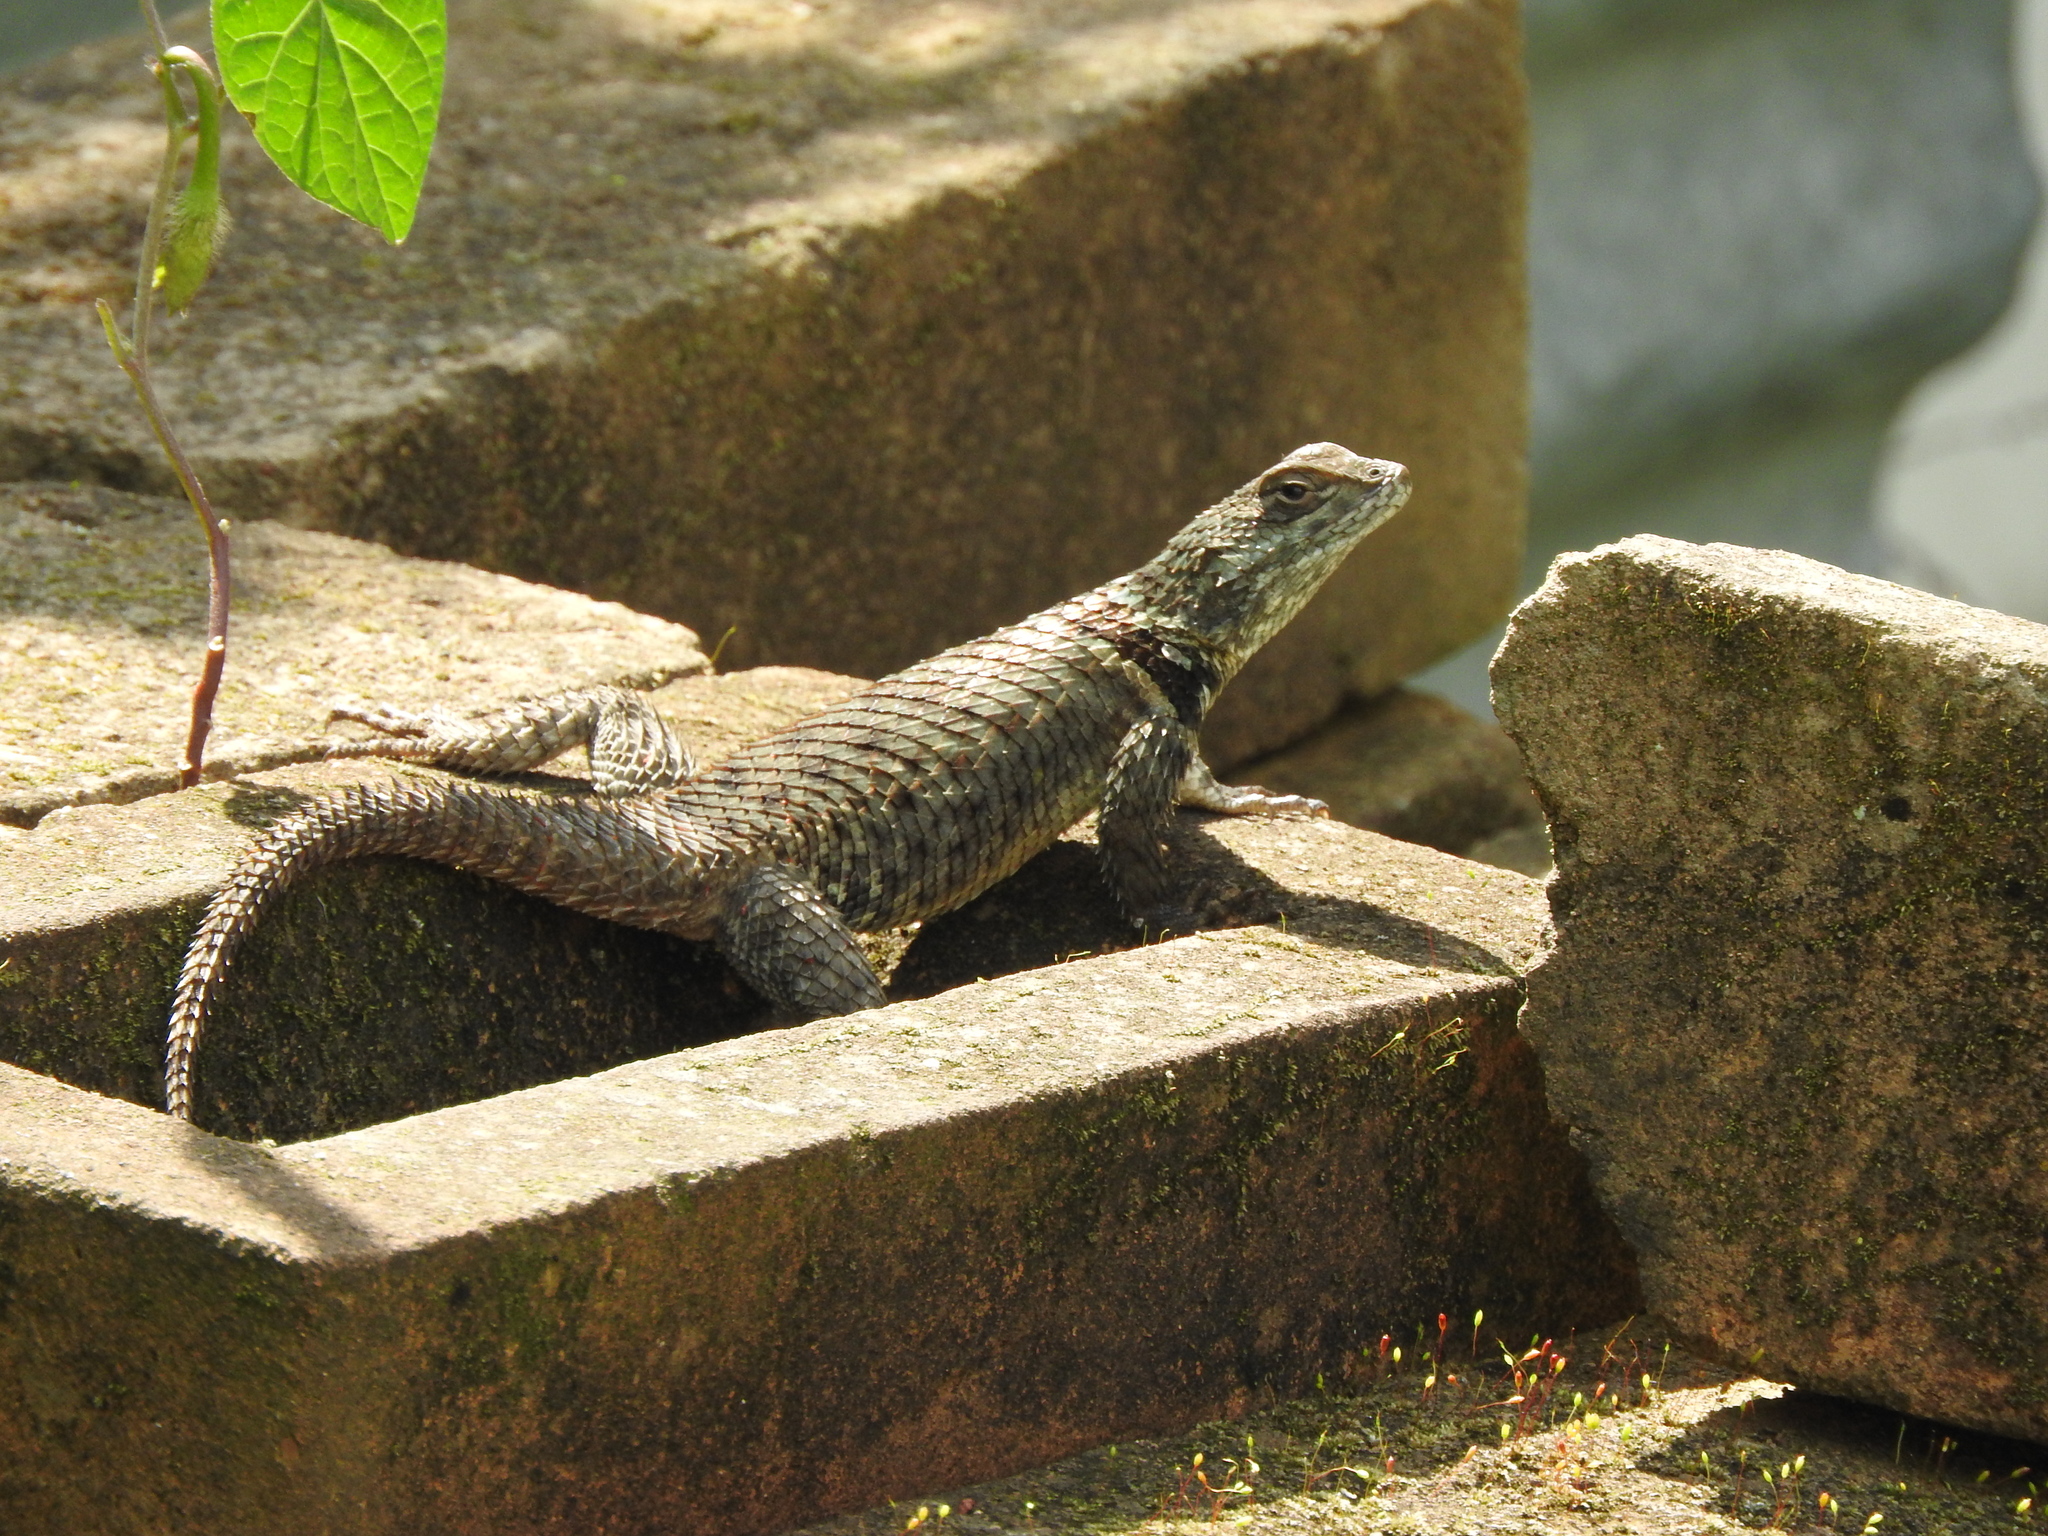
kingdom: Animalia
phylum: Chordata
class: Squamata
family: Phrynosomatidae
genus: Sceloporus
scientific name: Sceloporus torquatus
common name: Central plateau torquate lizard [melanogaster]
